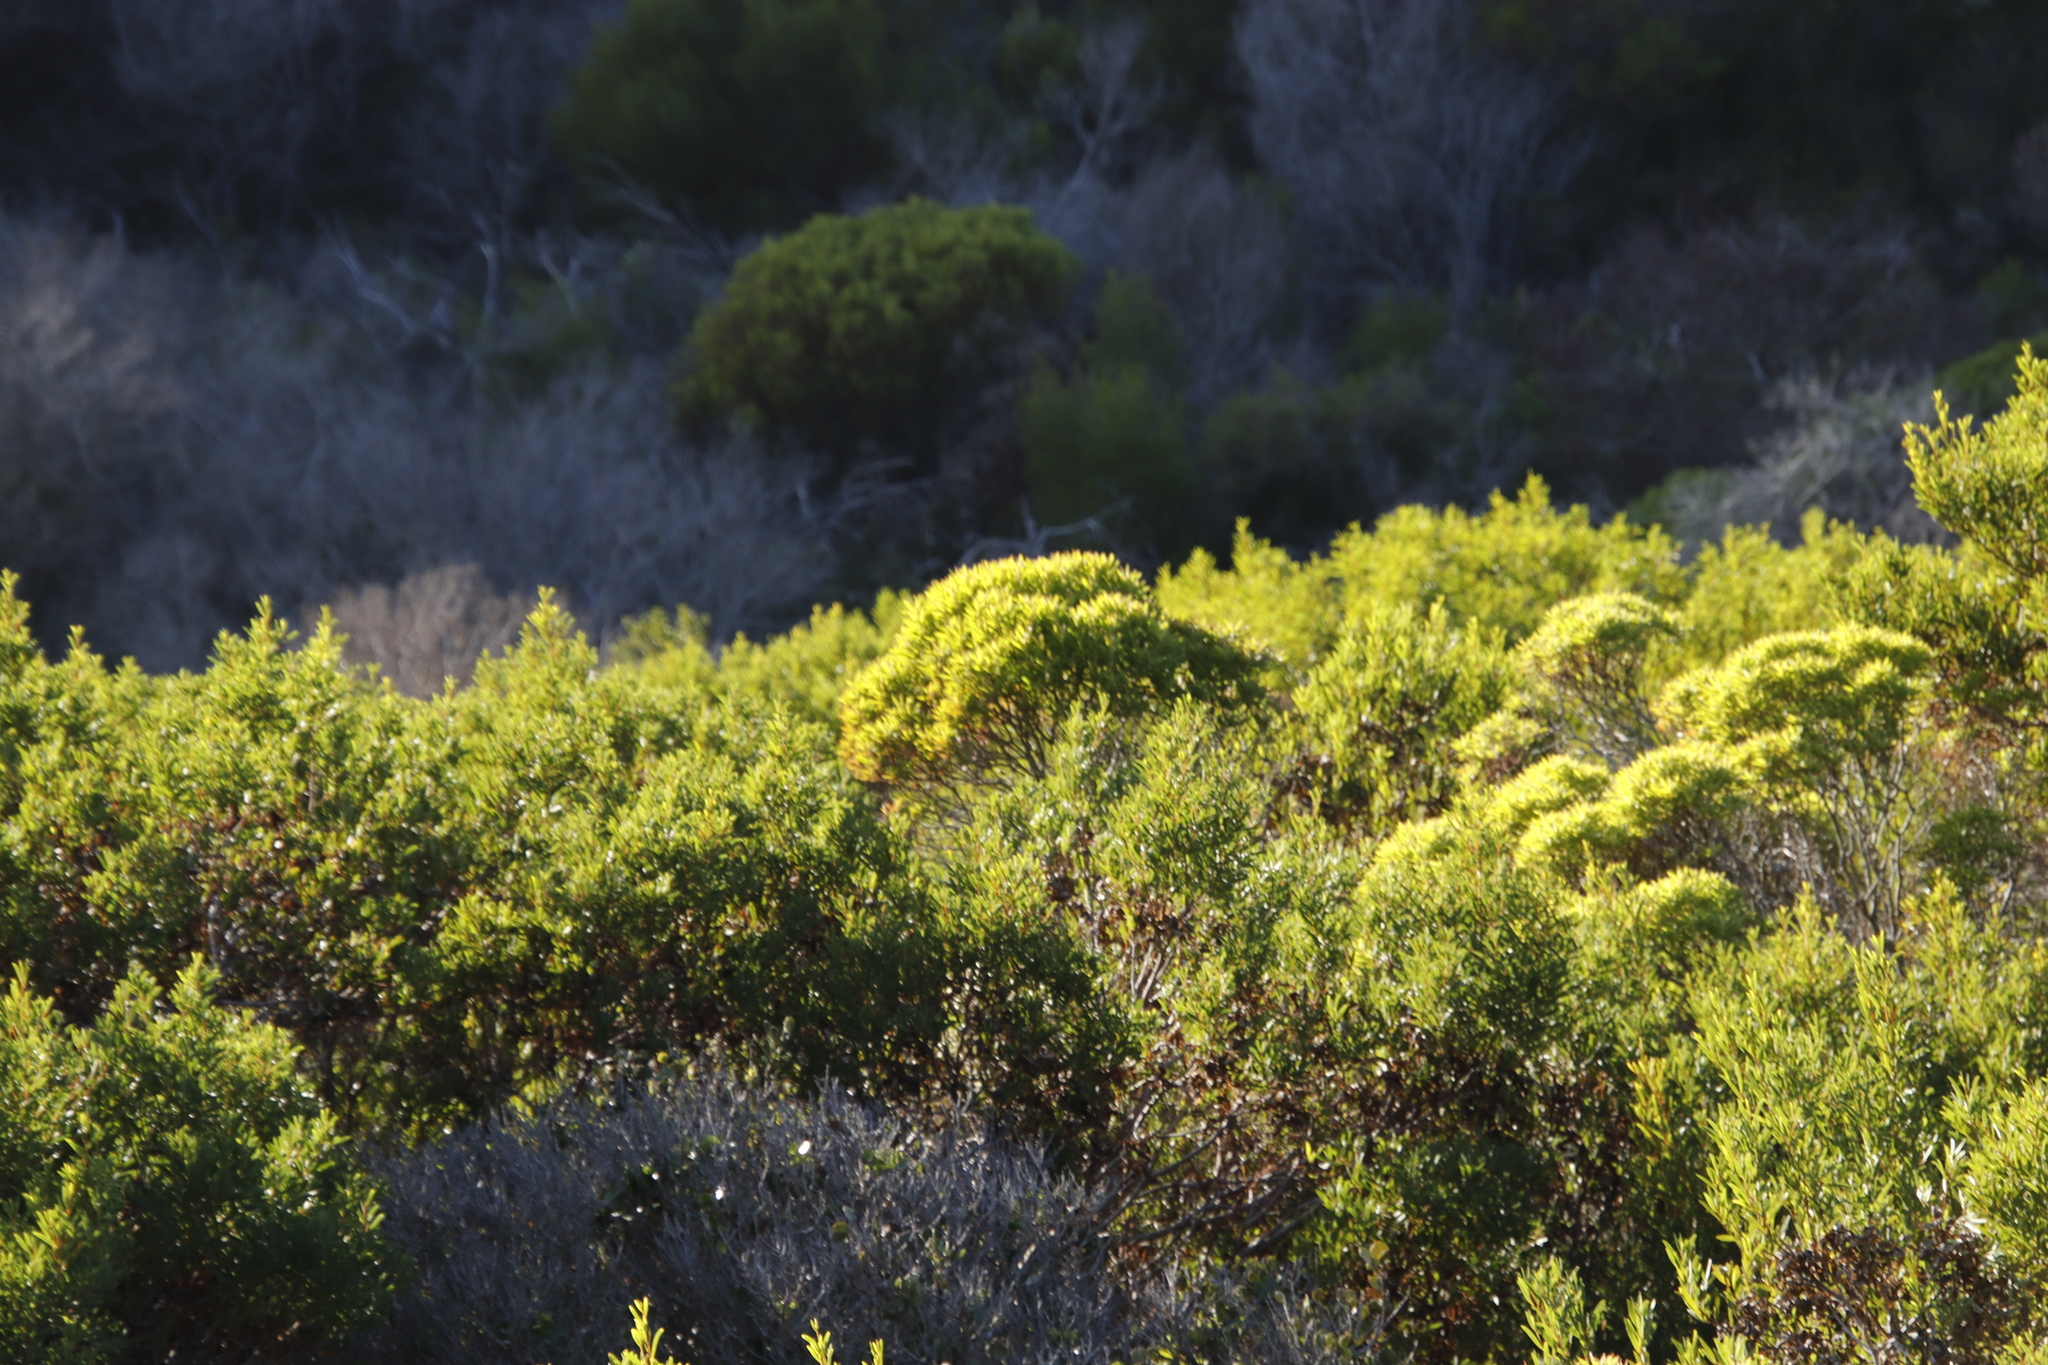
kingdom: Plantae
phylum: Tracheophyta
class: Magnoliopsida
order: Proteales
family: Proteaceae
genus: Leucadendron
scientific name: Leucadendron coniferum
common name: Dune conebush
